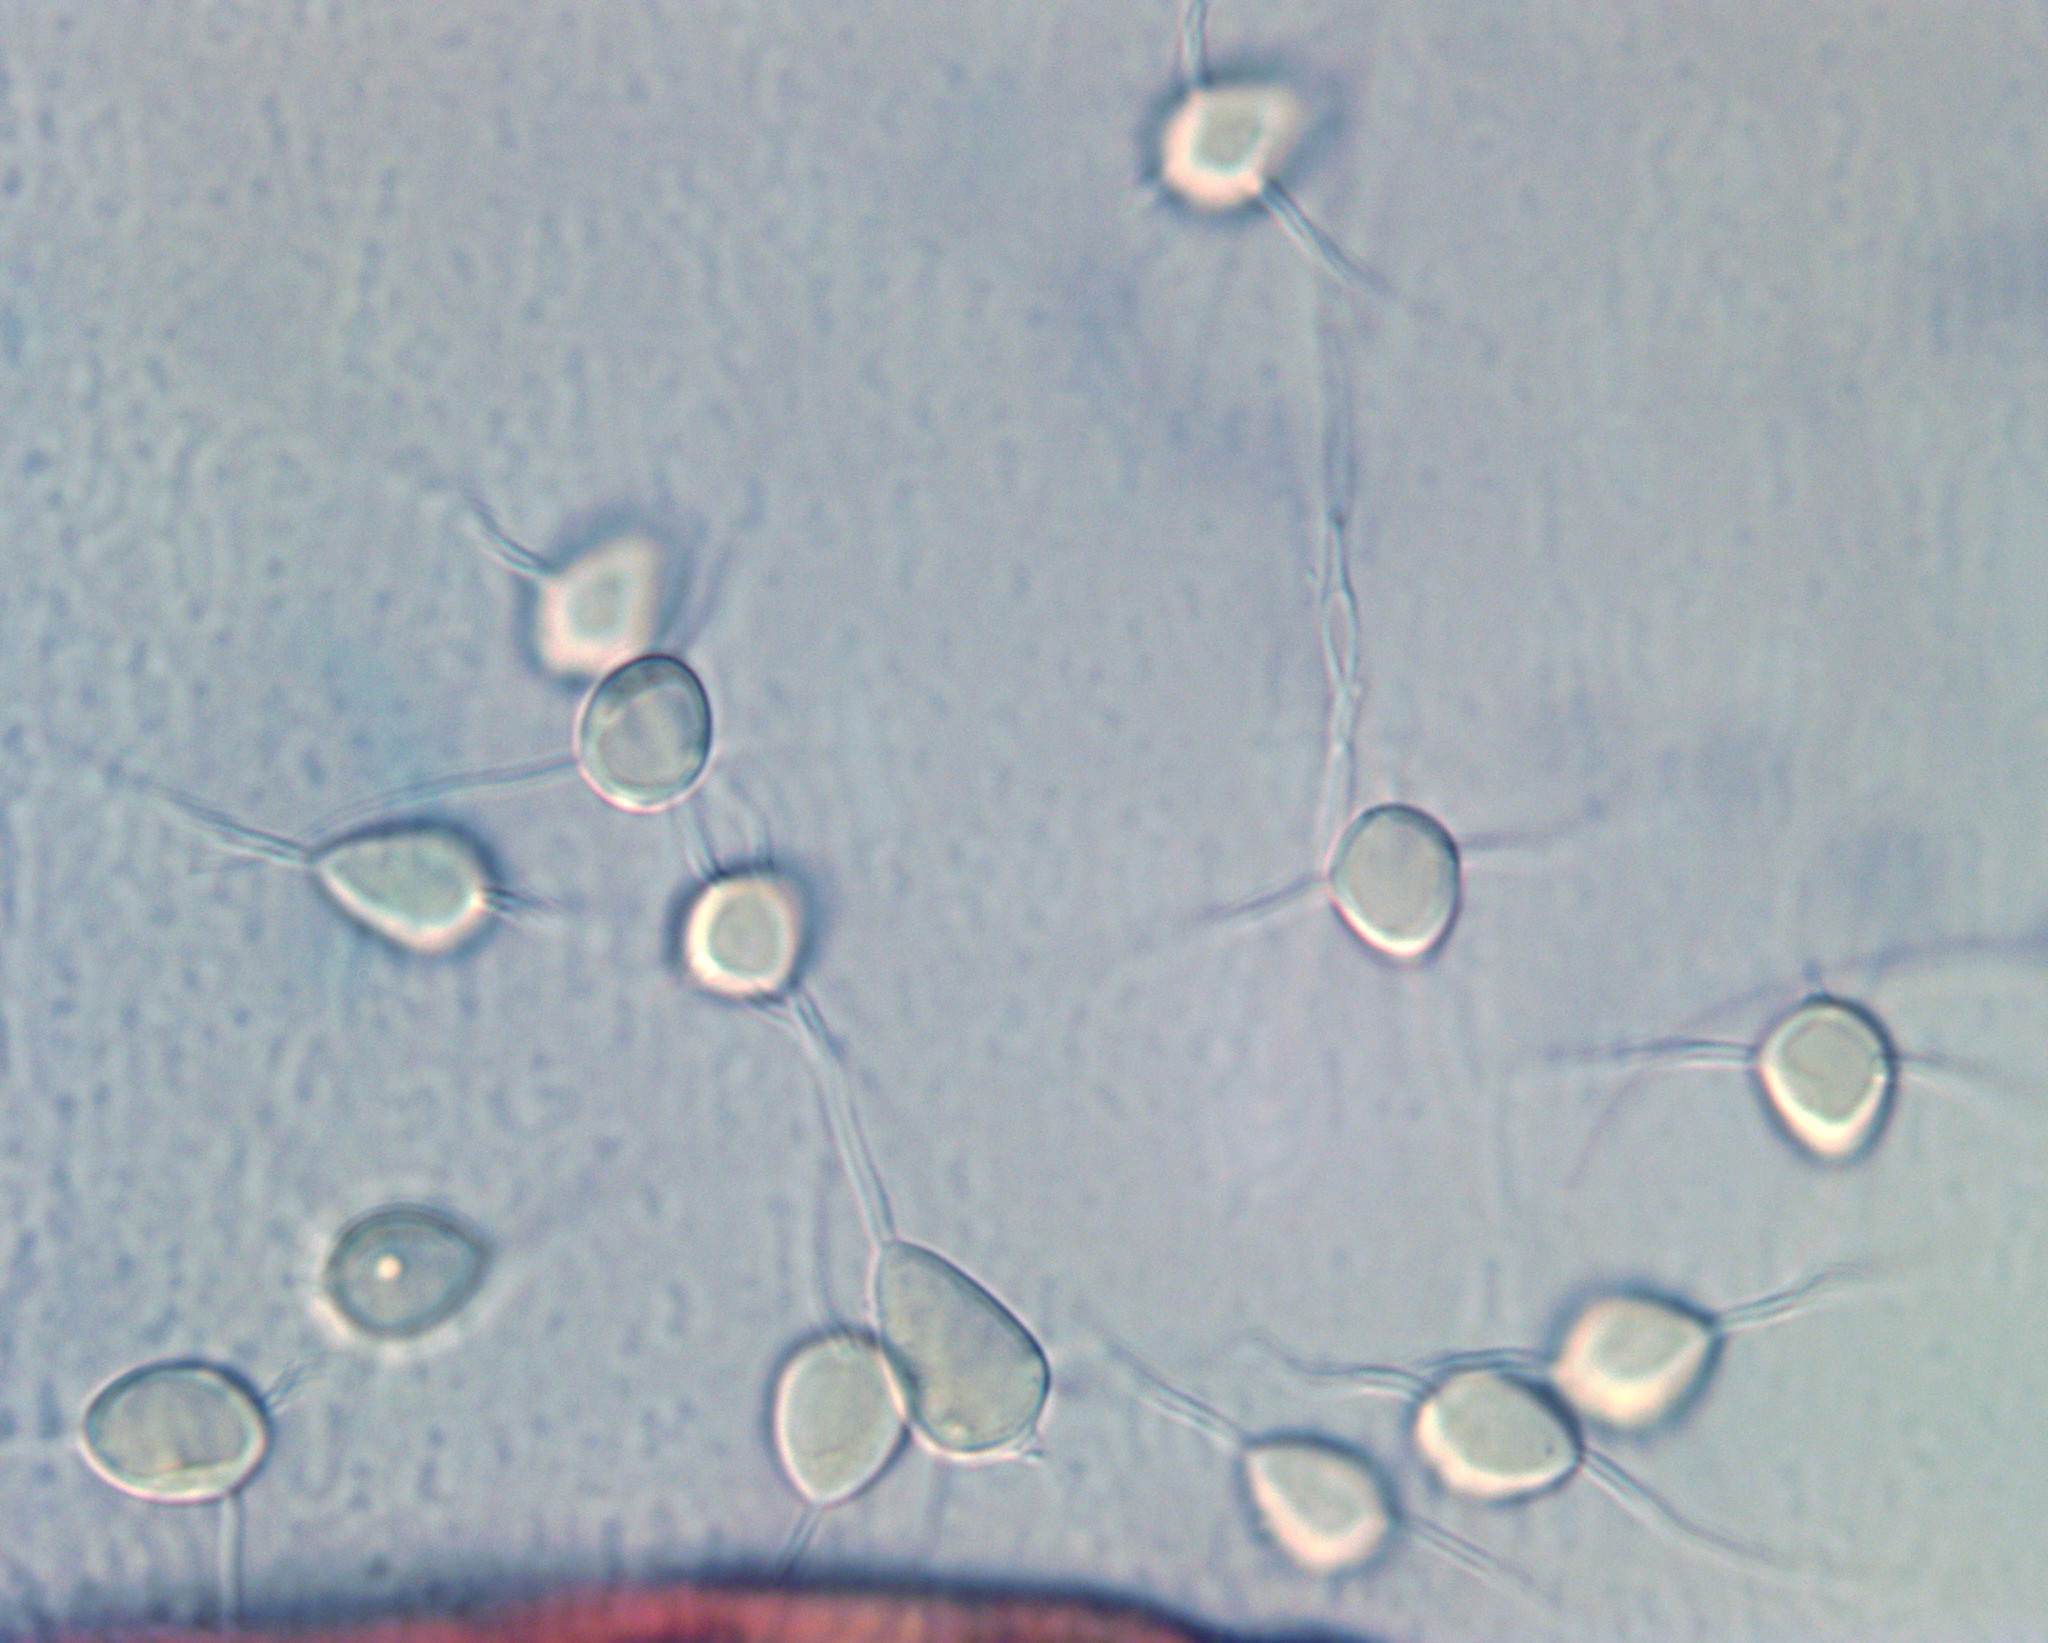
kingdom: Fungi
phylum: Basidiomycota
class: Agaricomycetes
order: Agaricales
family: Niaceae
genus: Nia
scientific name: Nia vibrissa
